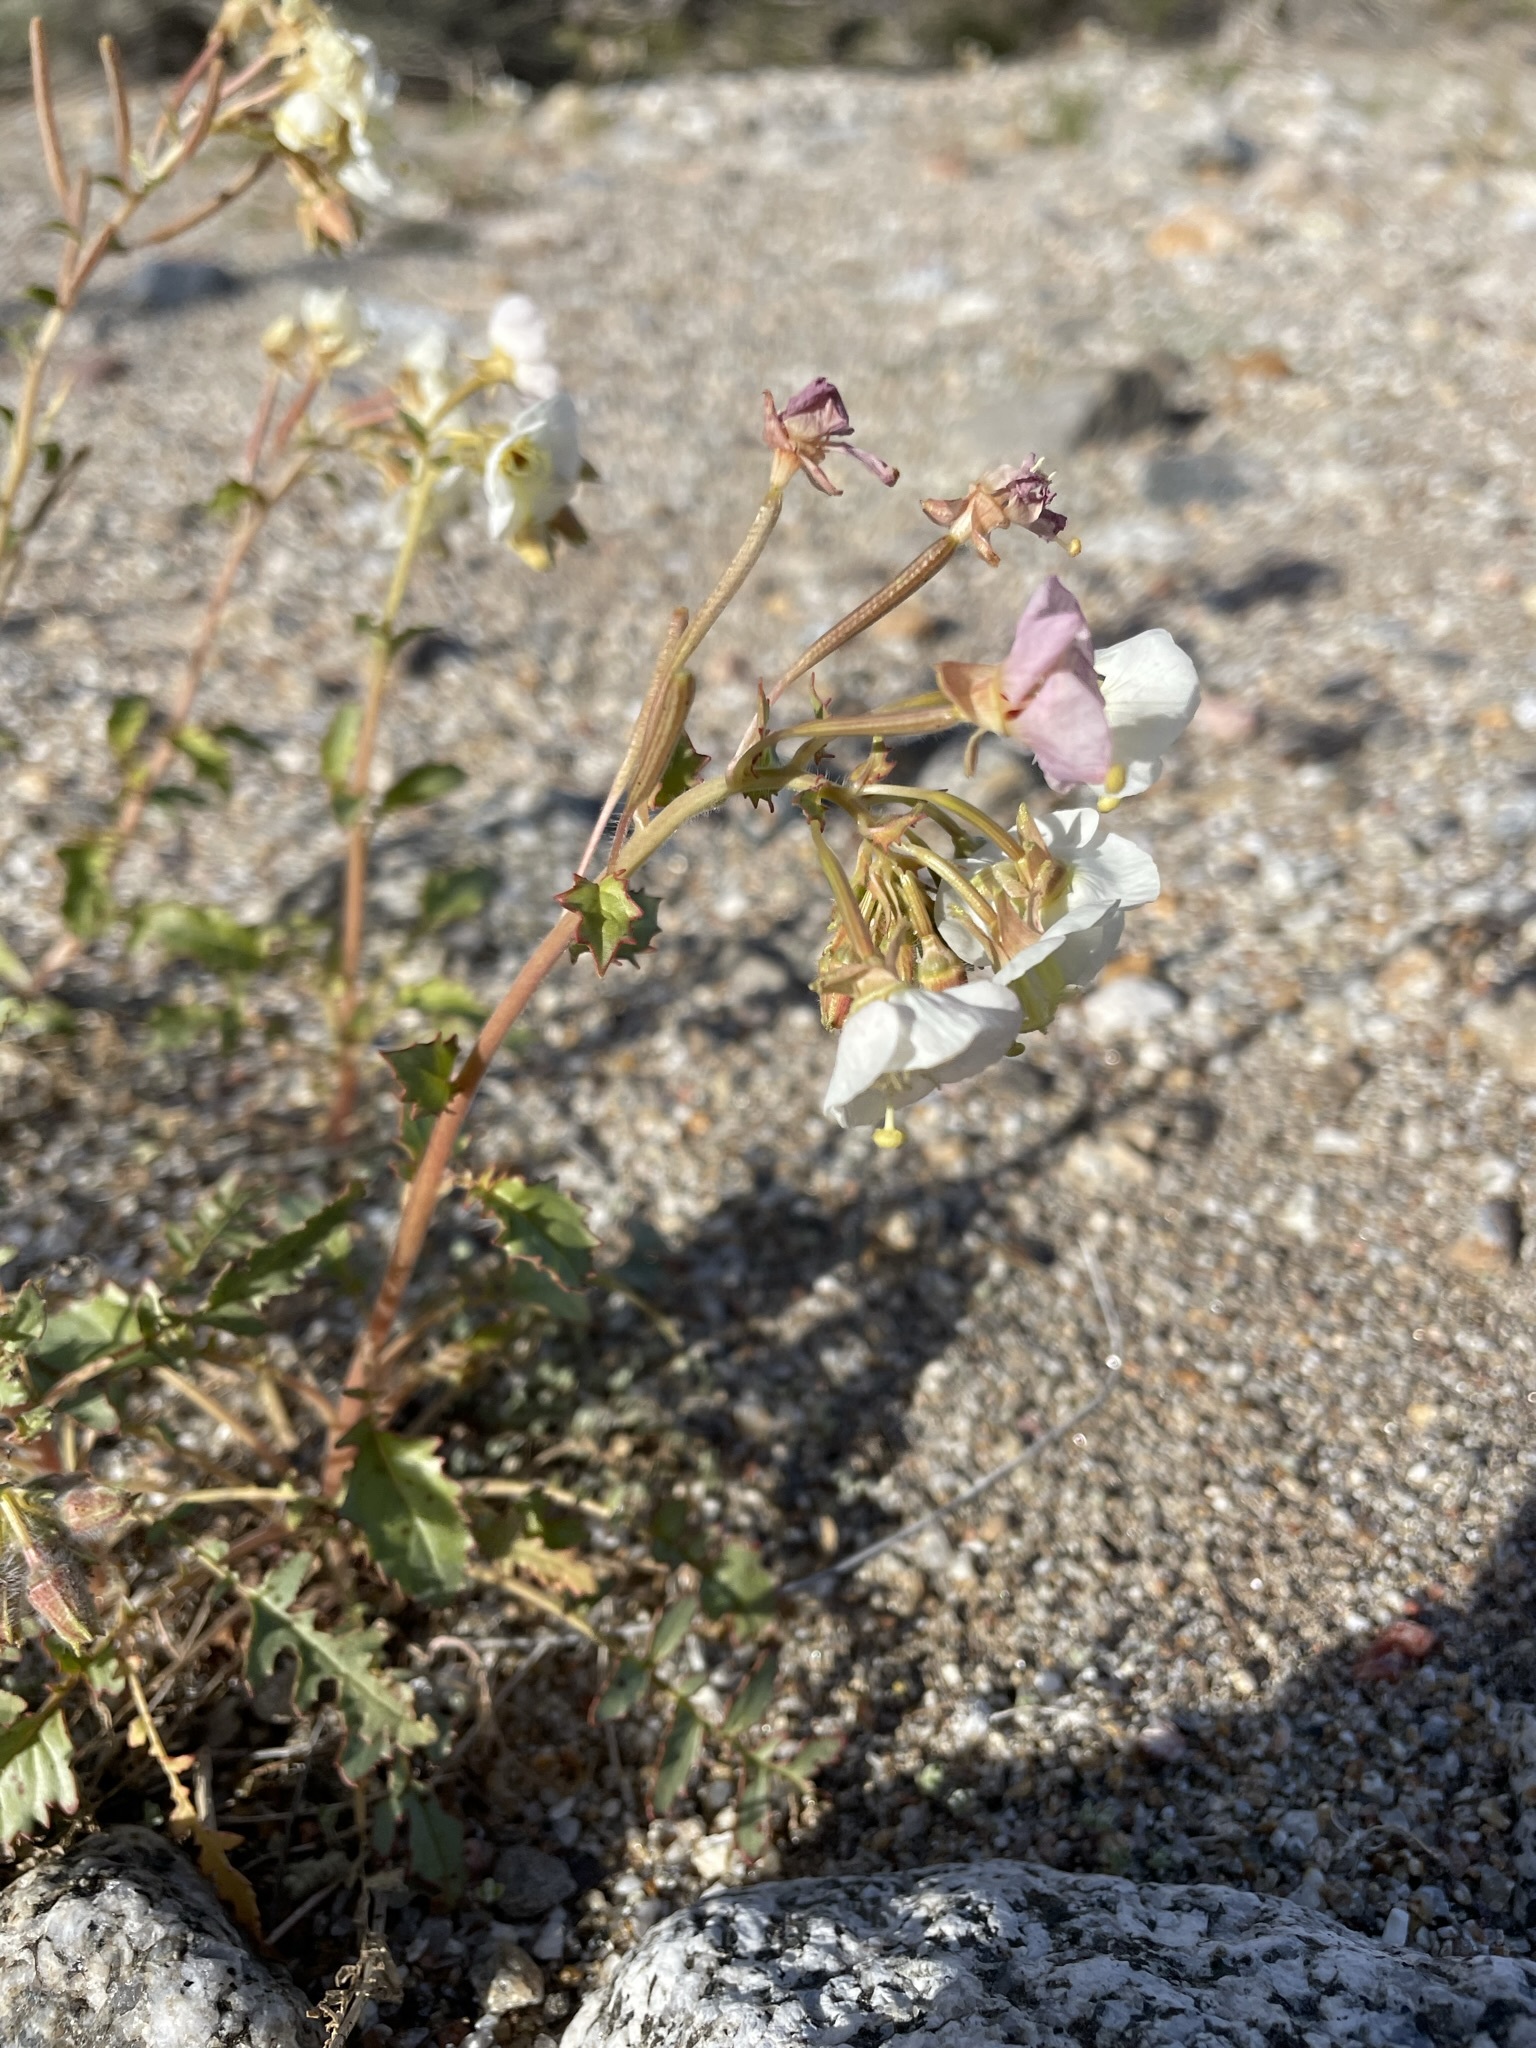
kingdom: Plantae
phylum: Tracheophyta
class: Magnoliopsida
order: Myrtales
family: Onagraceae
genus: Chylismia
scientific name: Chylismia claviformis
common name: Browneyes
